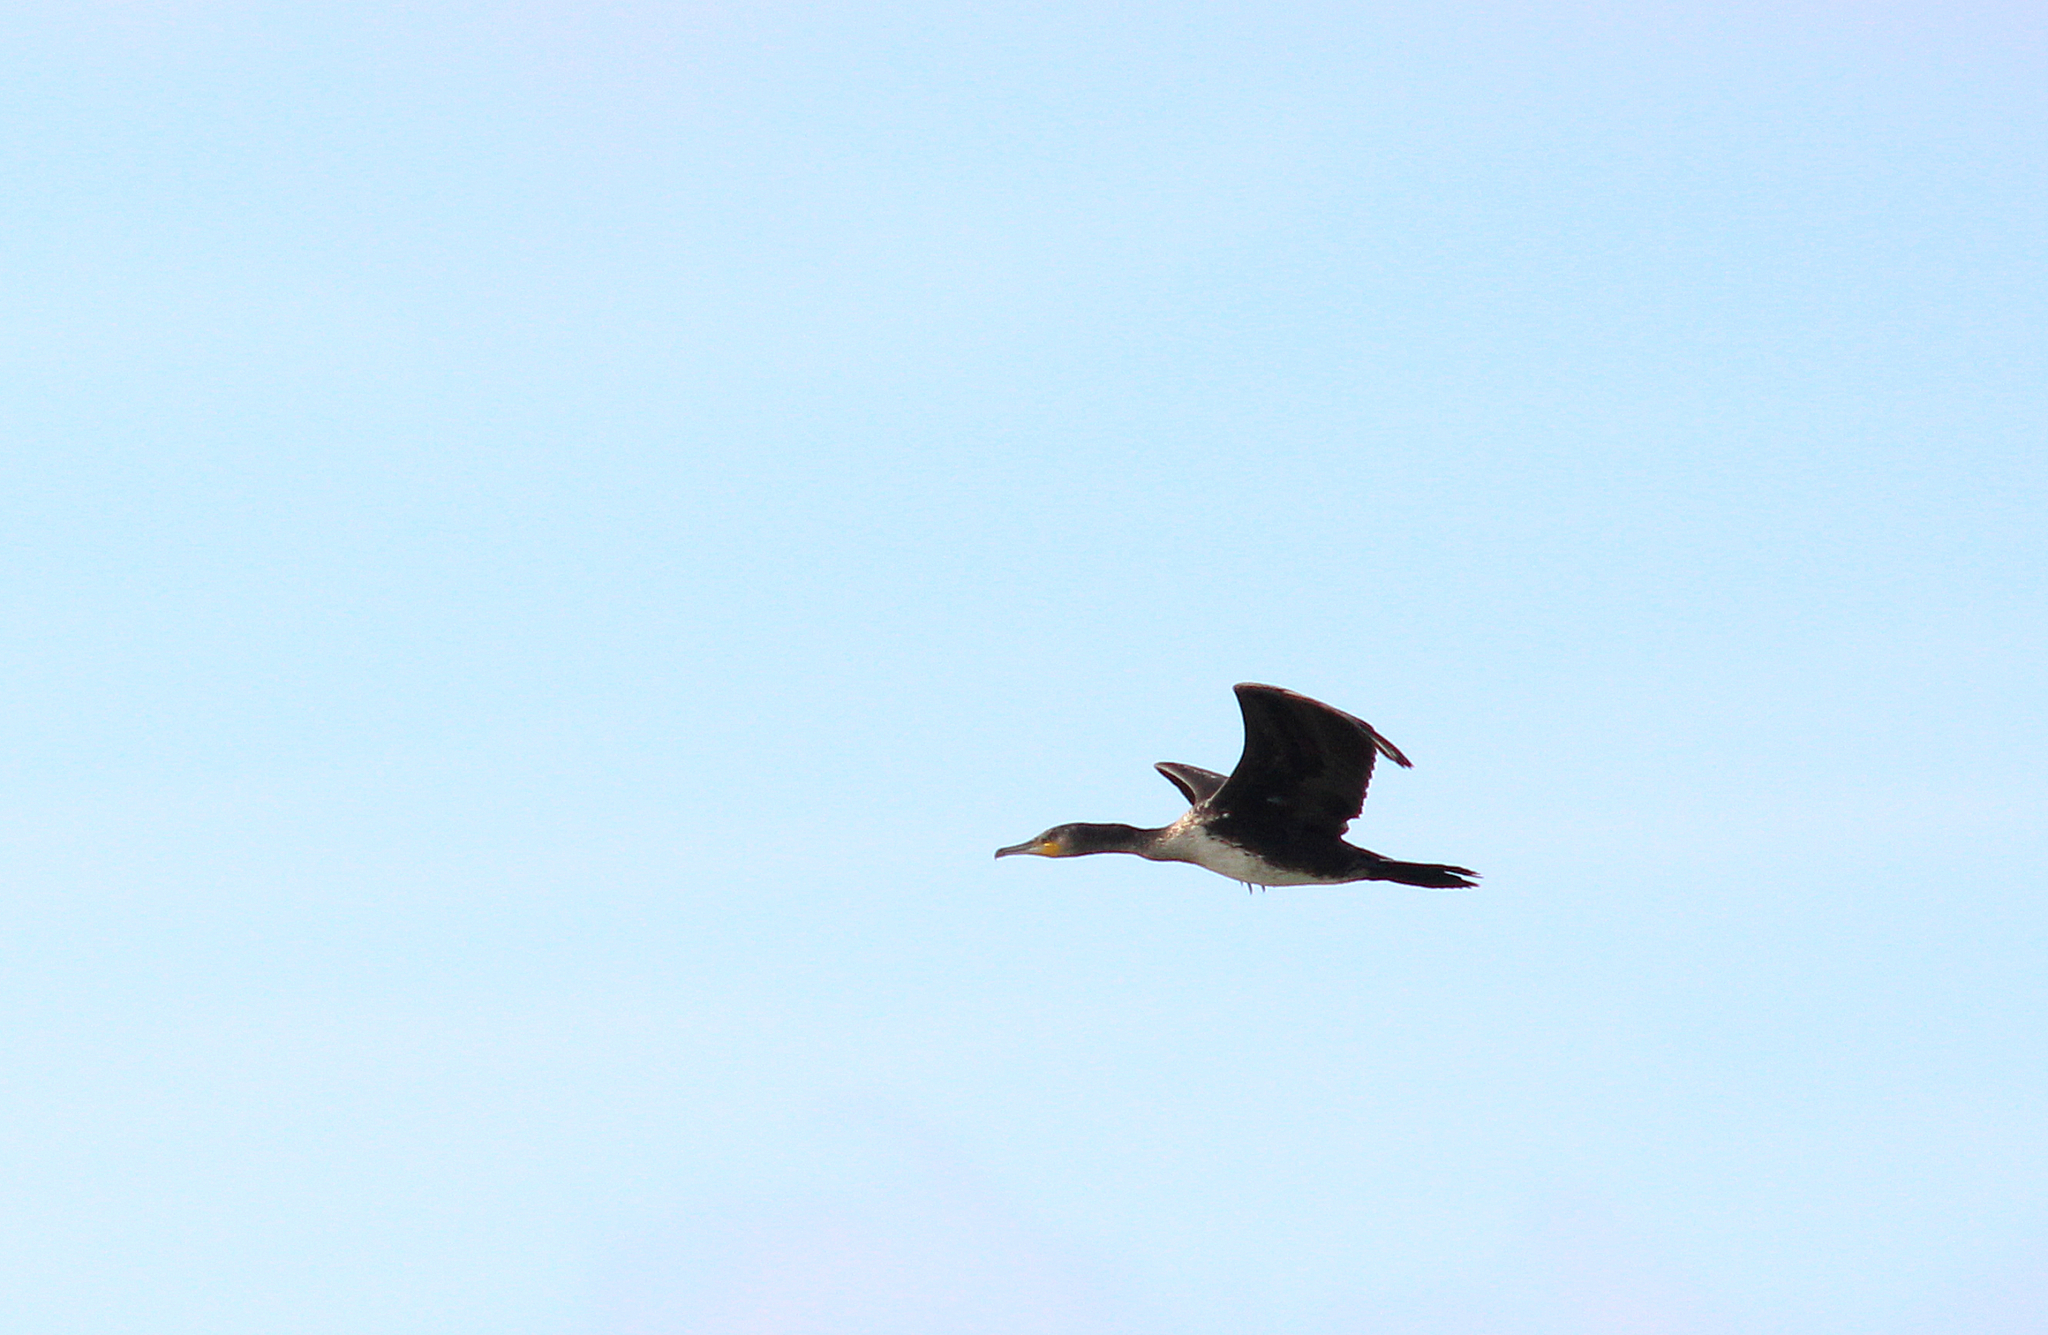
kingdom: Animalia
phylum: Chordata
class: Aves
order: Suliformes
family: Phalacrocoracidae
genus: Phalacrocorax
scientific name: Phalacrocorax carbo
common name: Great cormorant
